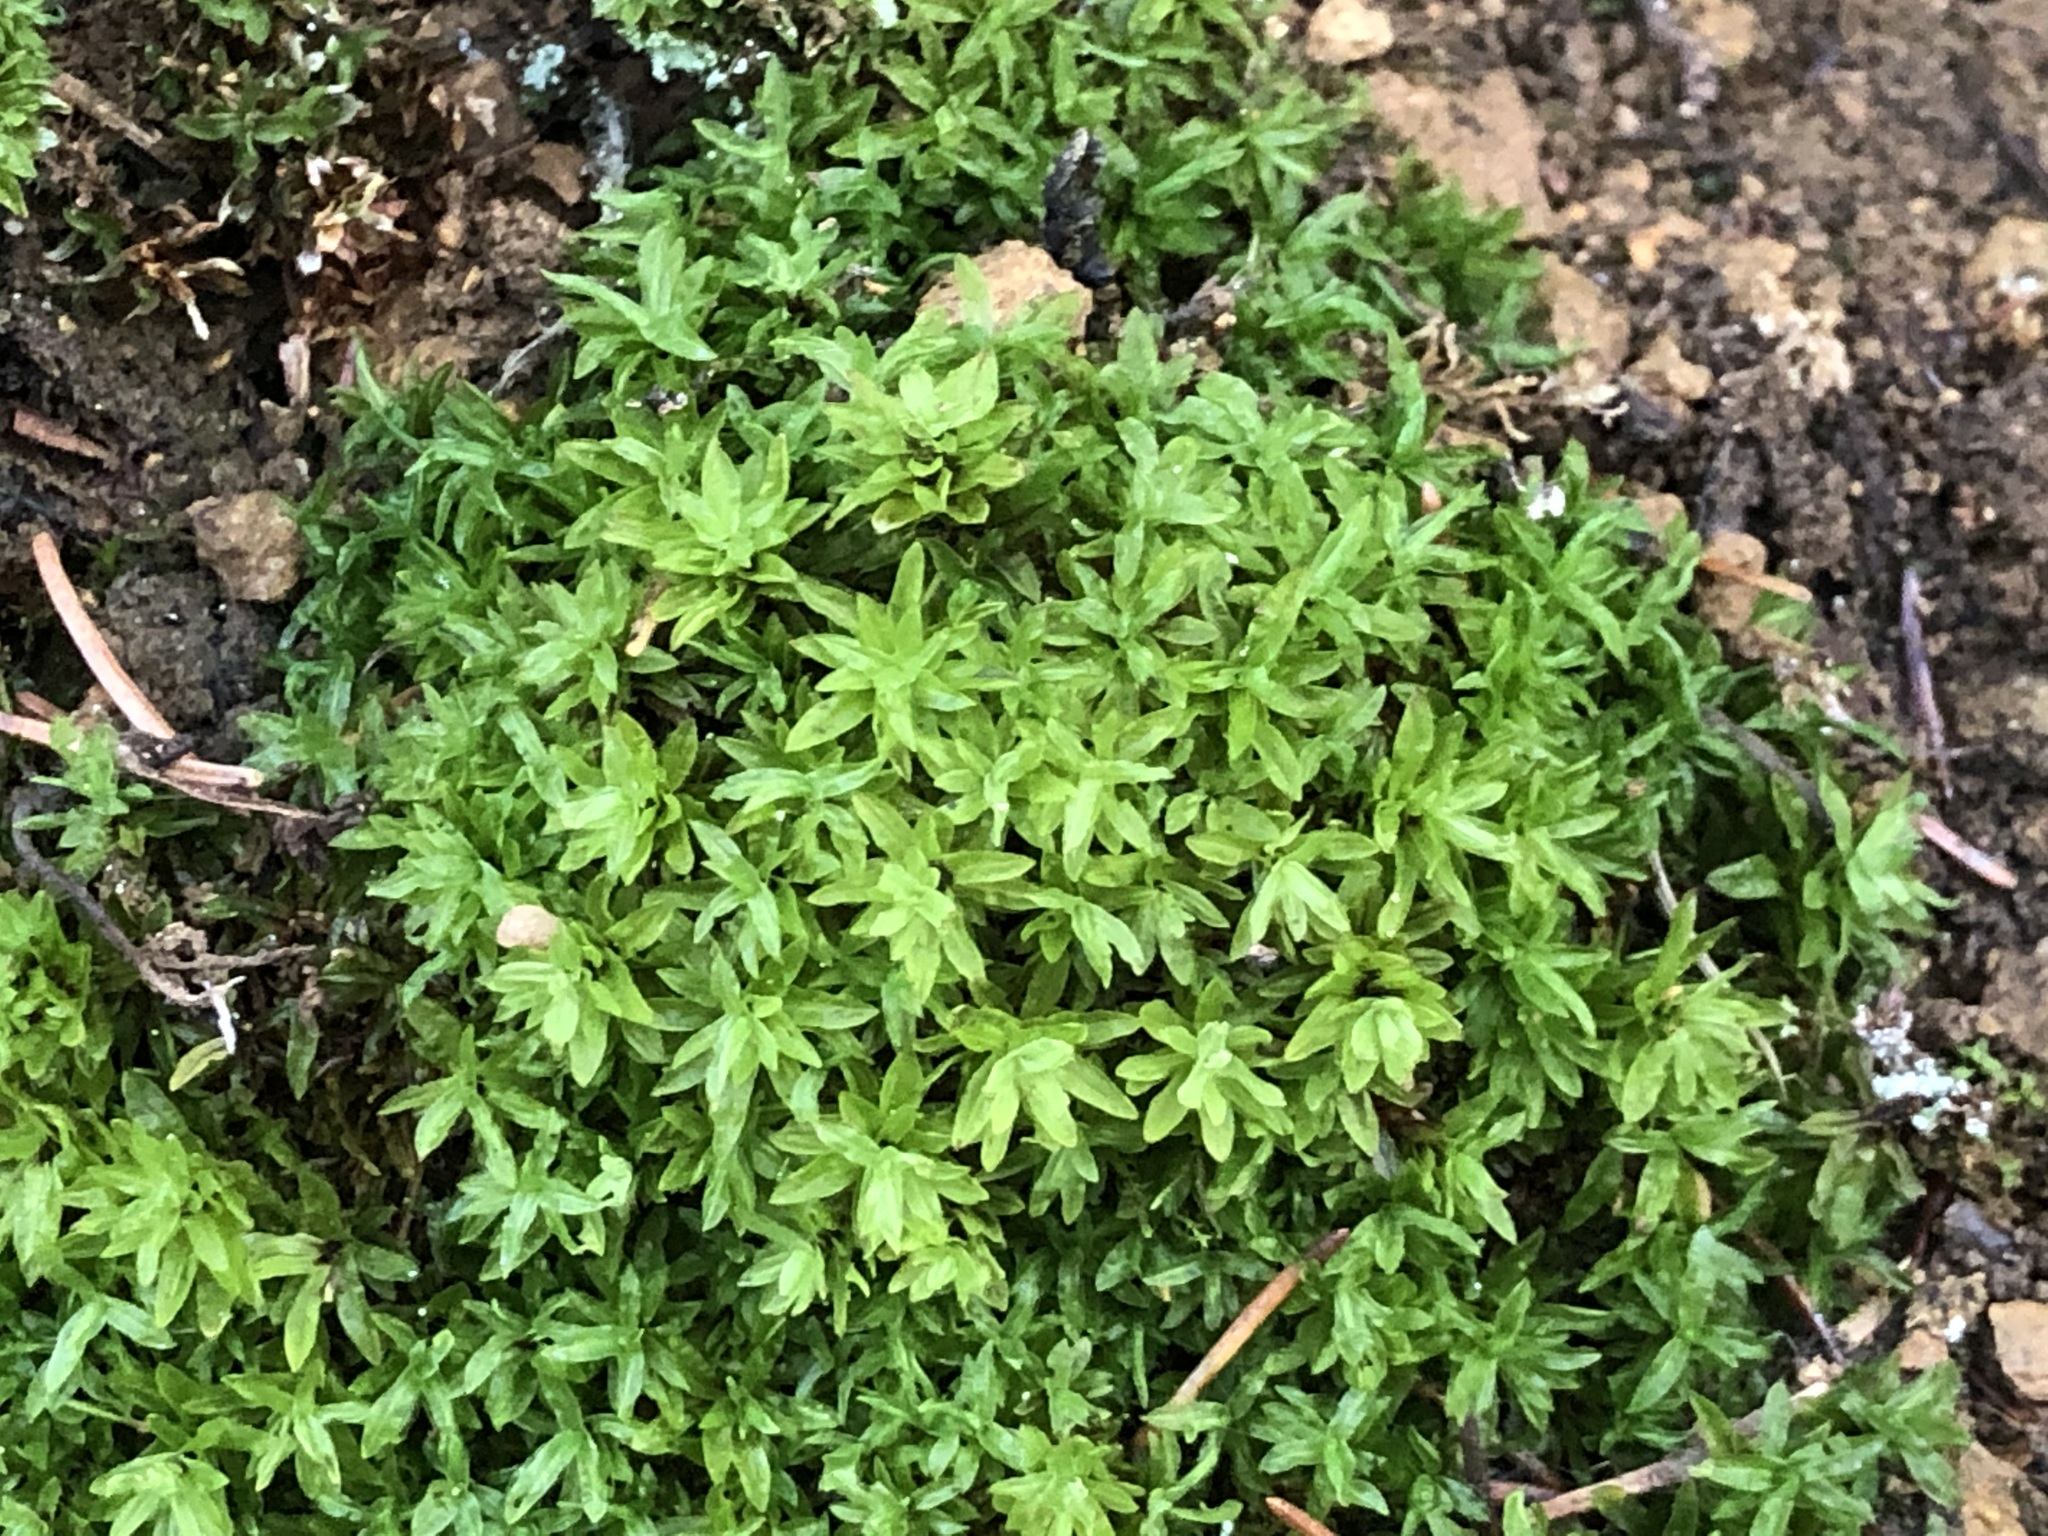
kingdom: Plantae
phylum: Bryophyta
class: Bryopsida
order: Encalyptales
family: Encalyptaceae
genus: Encalypta
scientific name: Encalypta streptocarpa
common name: Spiral extinguisher-moss
